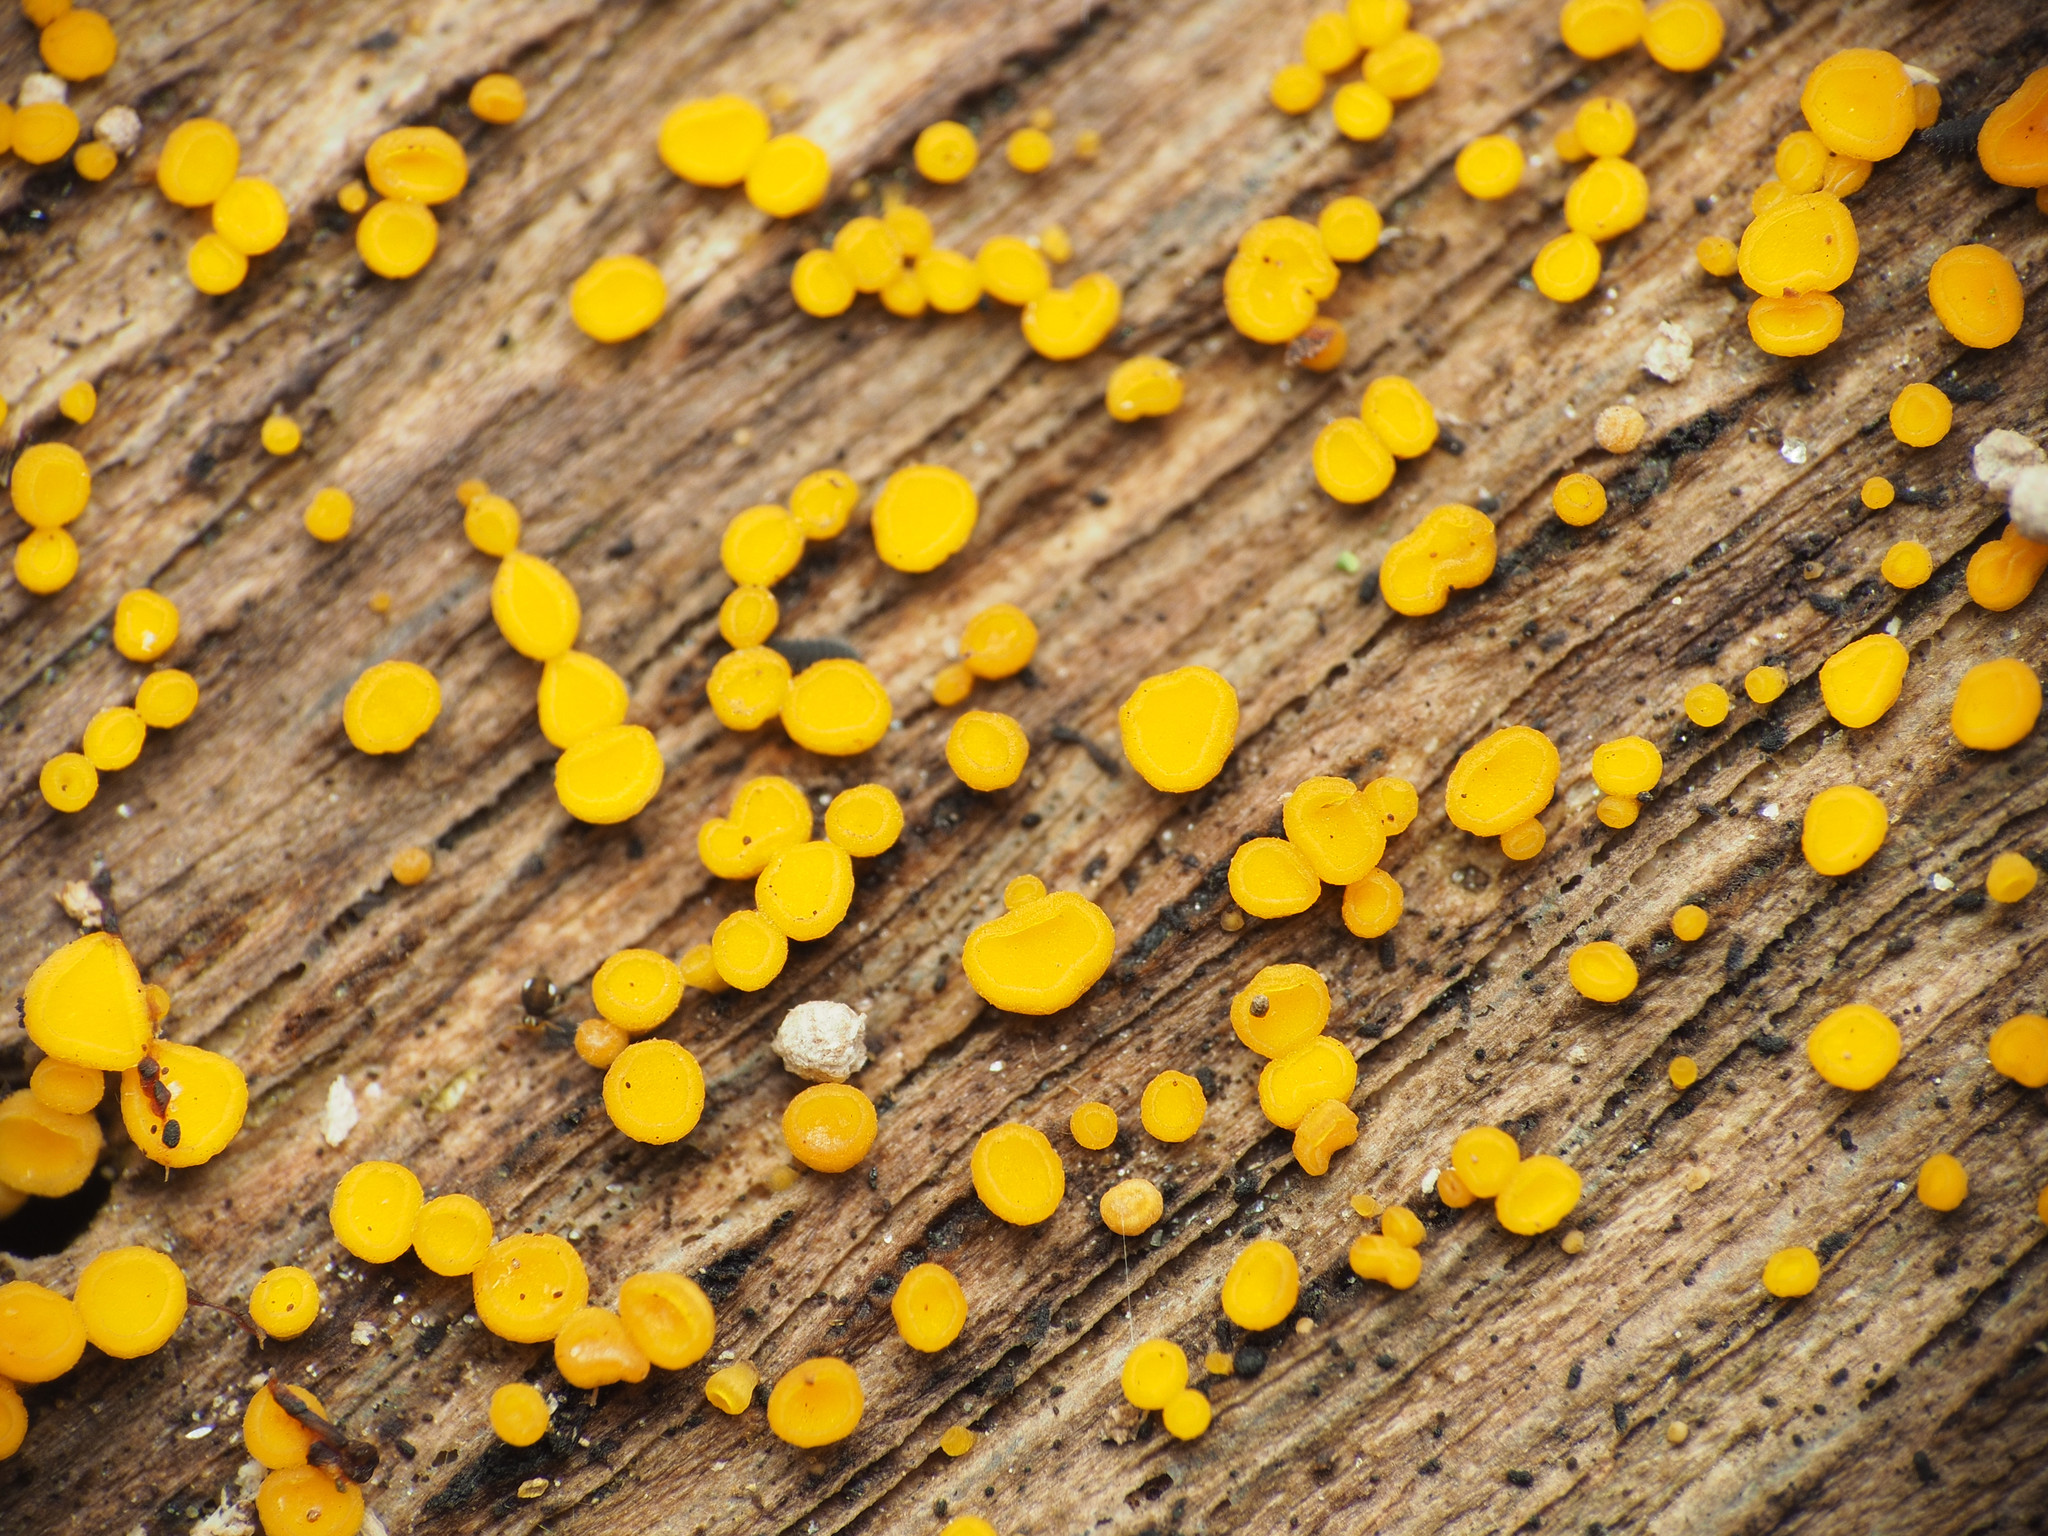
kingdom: Fungi
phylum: Ascomycota
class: Leotiomycetes
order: Helotiales
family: Pezizellaceae
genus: Calycina
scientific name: Calycina citrina
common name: Yellow fairy cups
